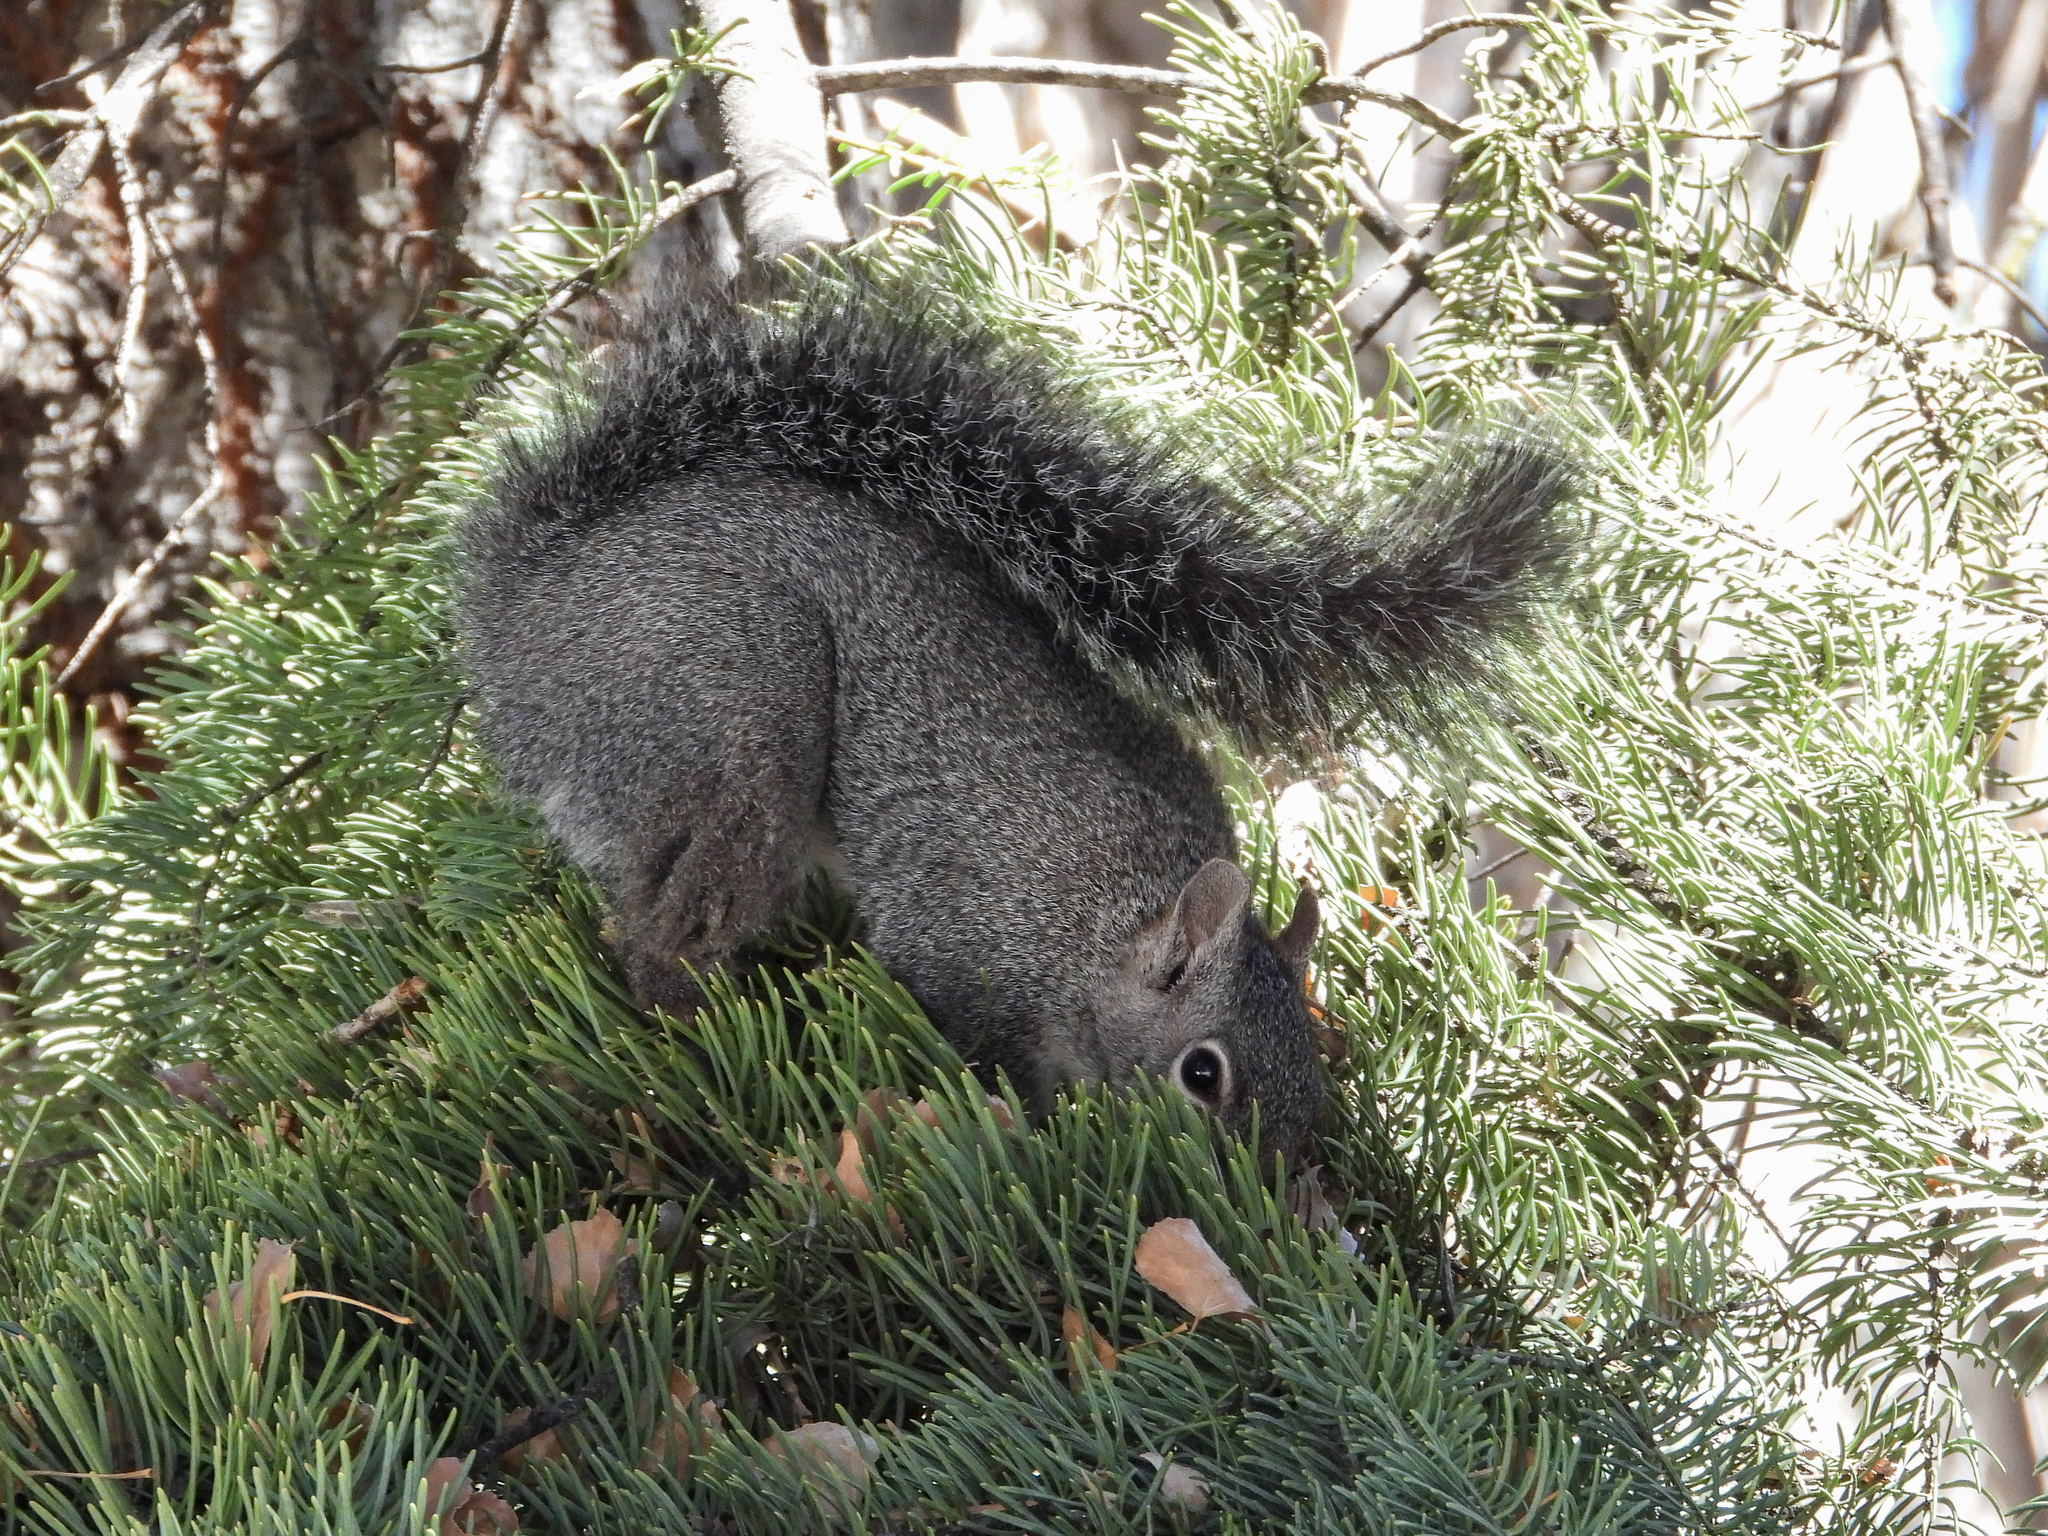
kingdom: Animalia
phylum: Chordata
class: Mammalia
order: Rodentia
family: Sciuridae
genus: Sciurus
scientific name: Sciurus griseus
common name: Western gray squirrel
